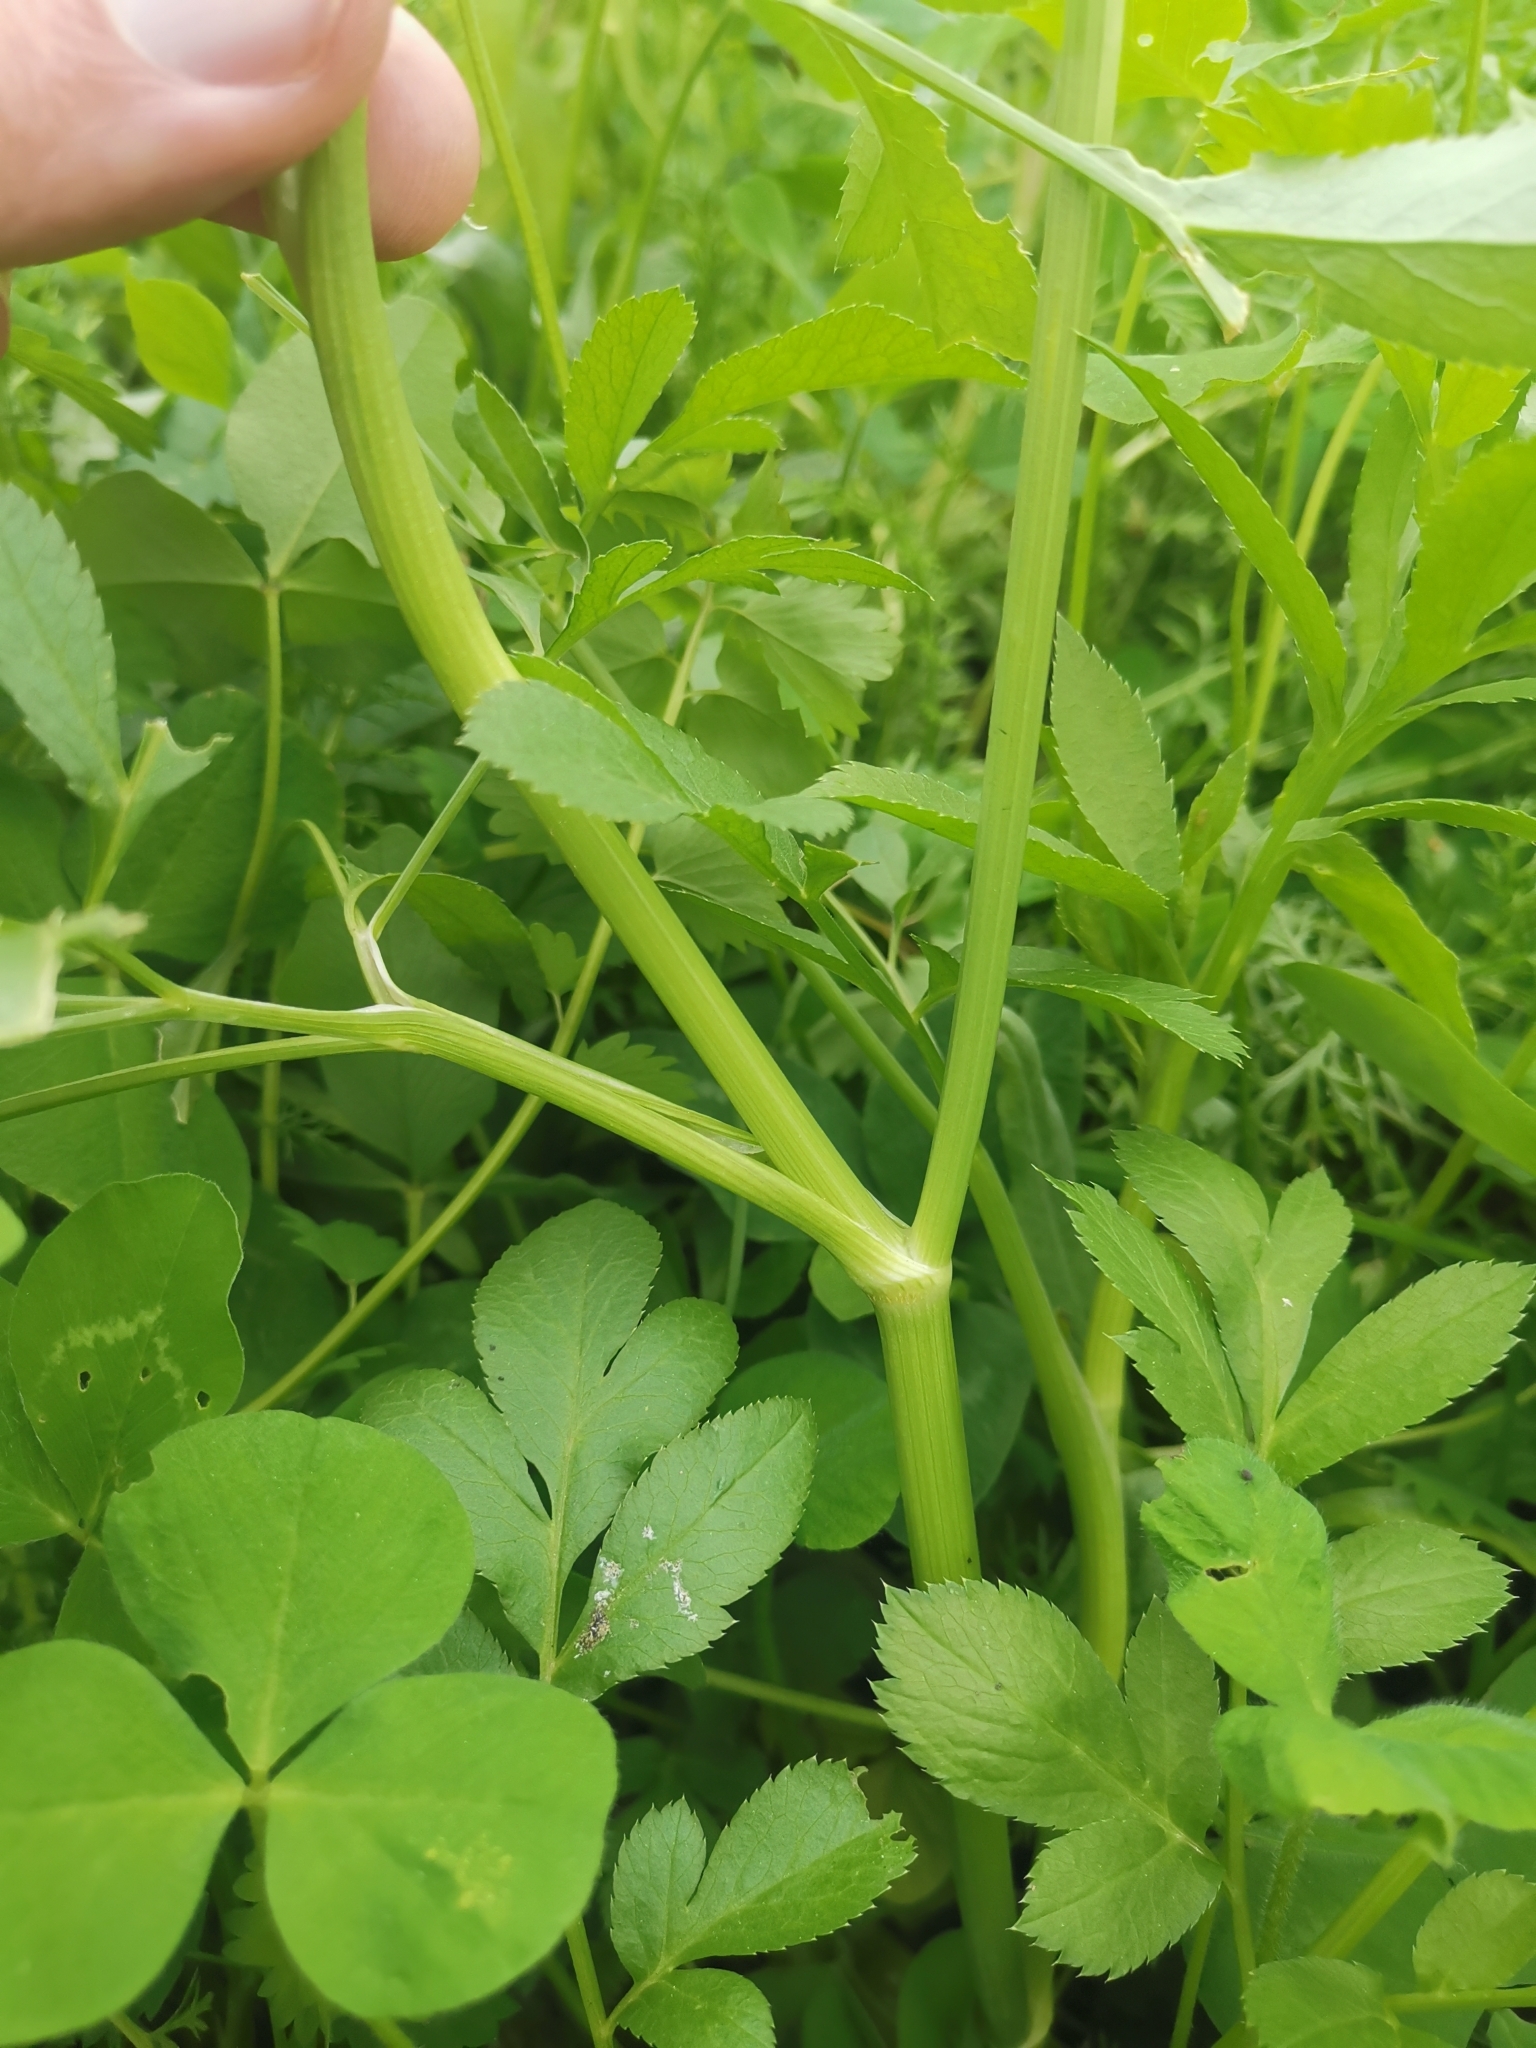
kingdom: Plantae
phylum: Tracheophyta
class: Magnoliopsida
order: Apiales
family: Apiaceae
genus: Ammi
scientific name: Ammi majus
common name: Bullwort
